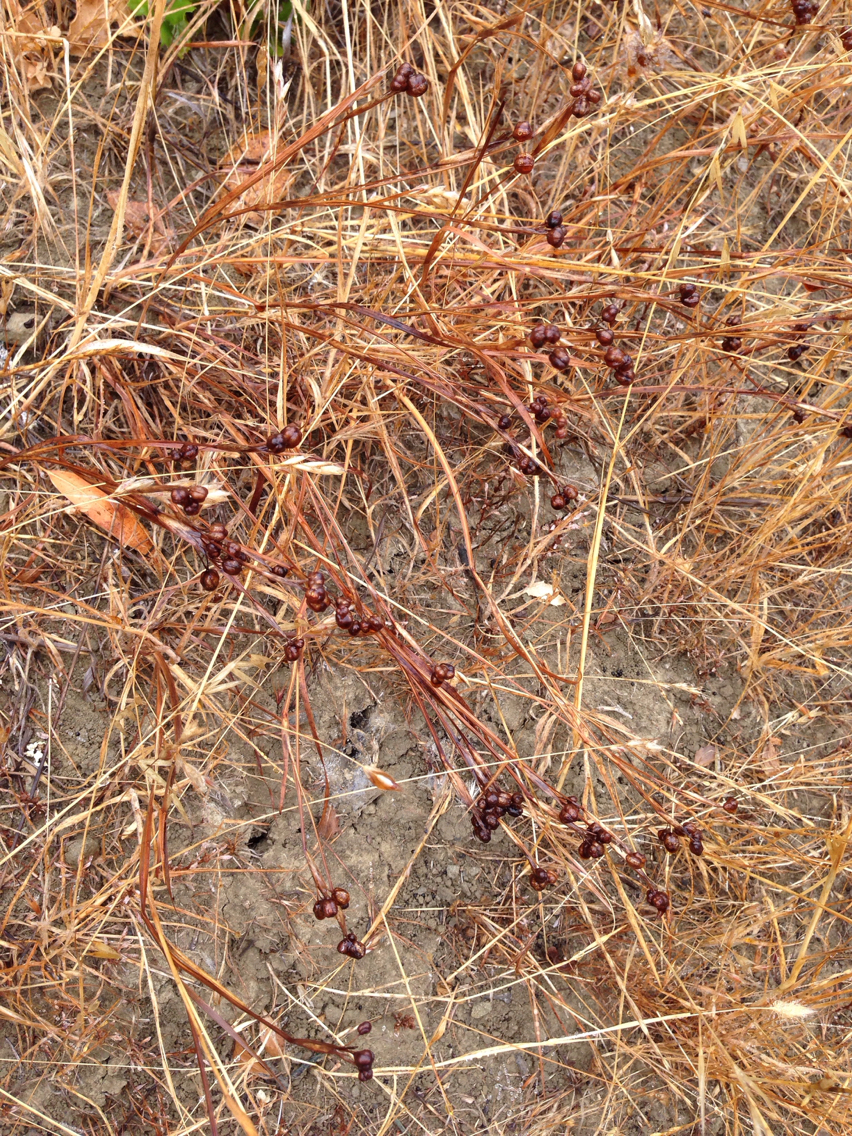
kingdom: Plantae
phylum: Tracheophyta
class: Liliopsida
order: Asparagales
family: Iridaceae
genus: Sisyrinchium
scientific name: Sisyrinchium bellum
